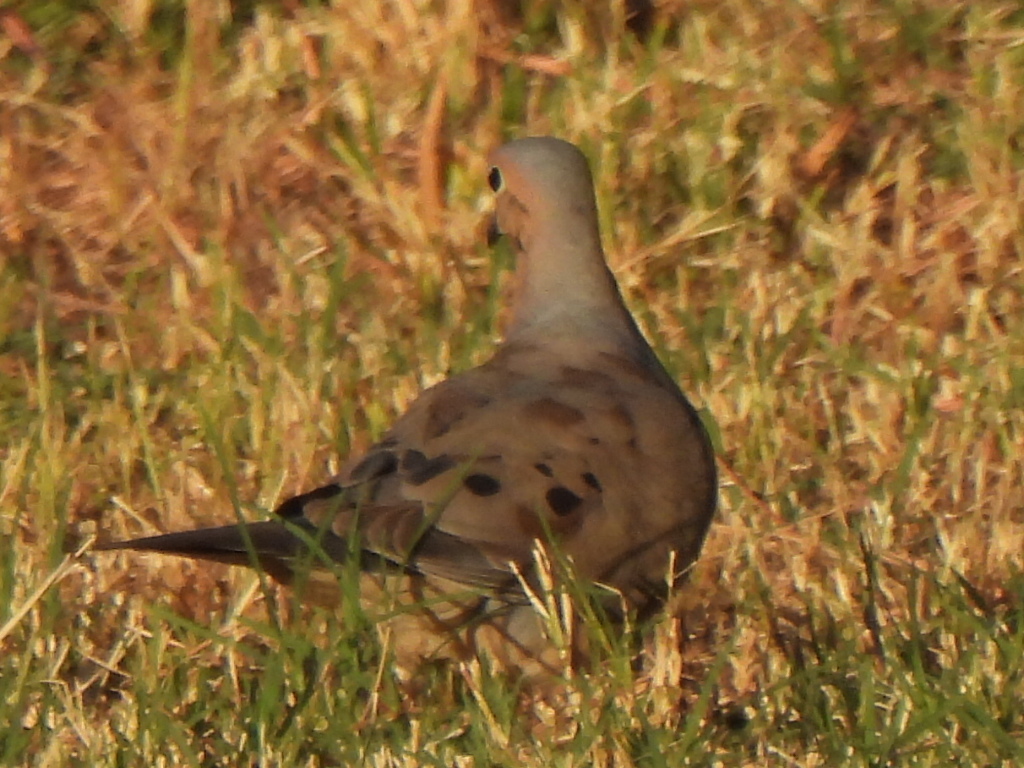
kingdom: Animalia
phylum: Chordata
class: Aves
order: Columbiformes
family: Columbidae
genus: Zenaida
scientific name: Zenaida macroura
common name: Mourning dove
